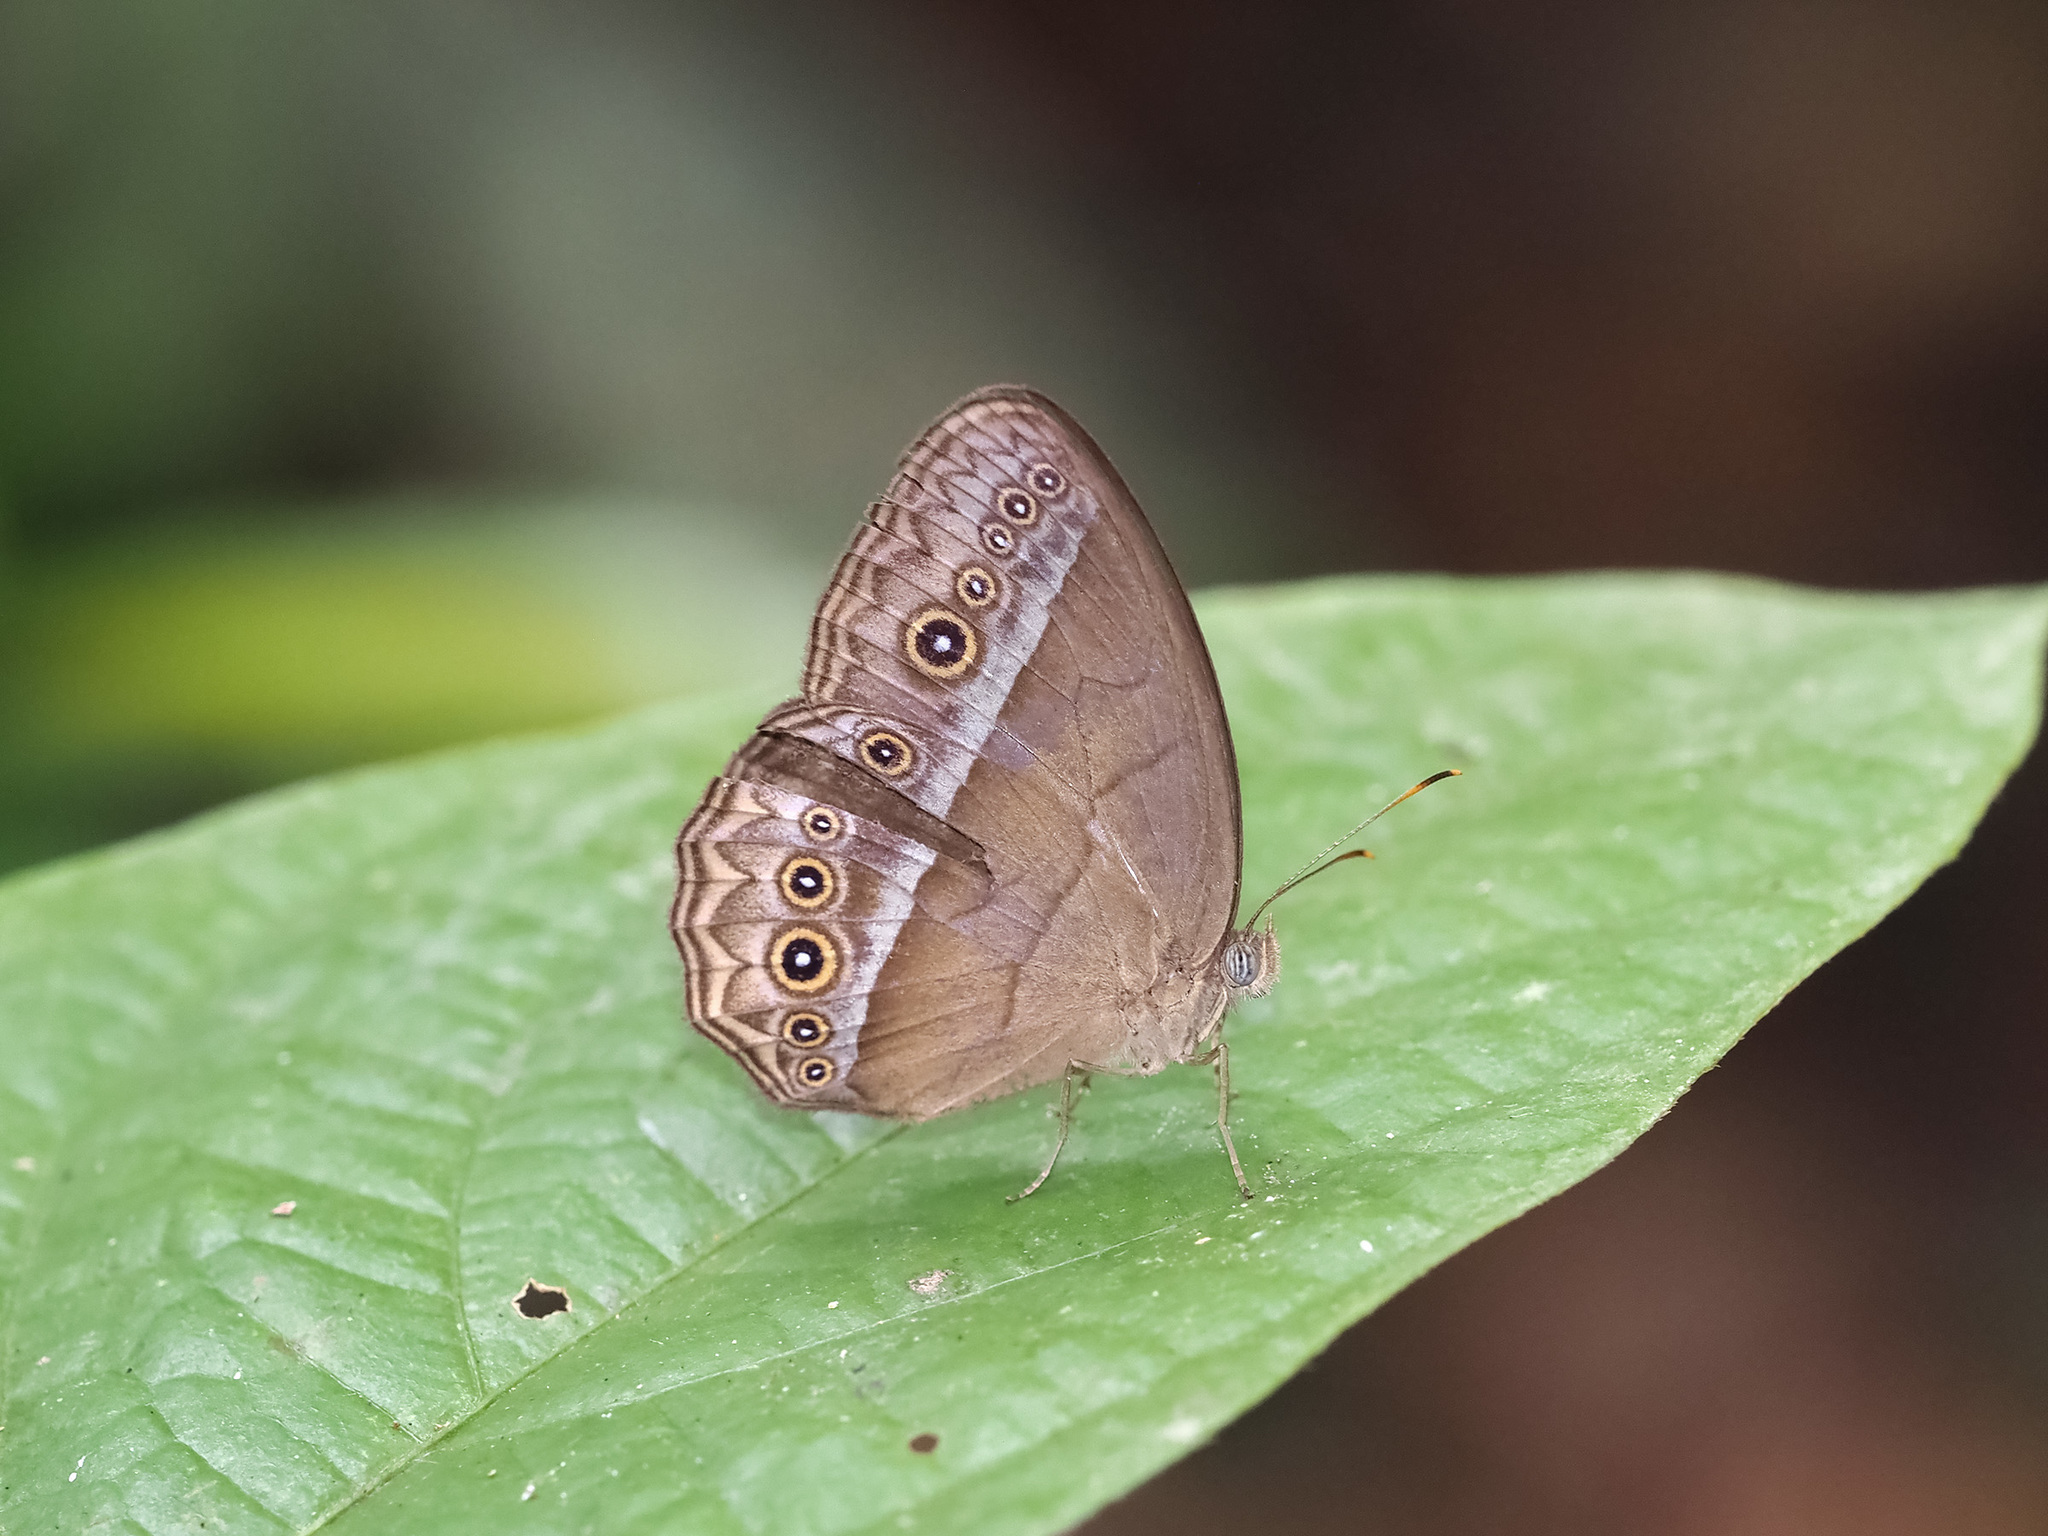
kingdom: Animalia
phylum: Arthropoda
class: Insecta
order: Lepidoptera
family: Nymphalidae
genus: Mycalesis
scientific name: Mycalesis orseis
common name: Purple bushbrown
